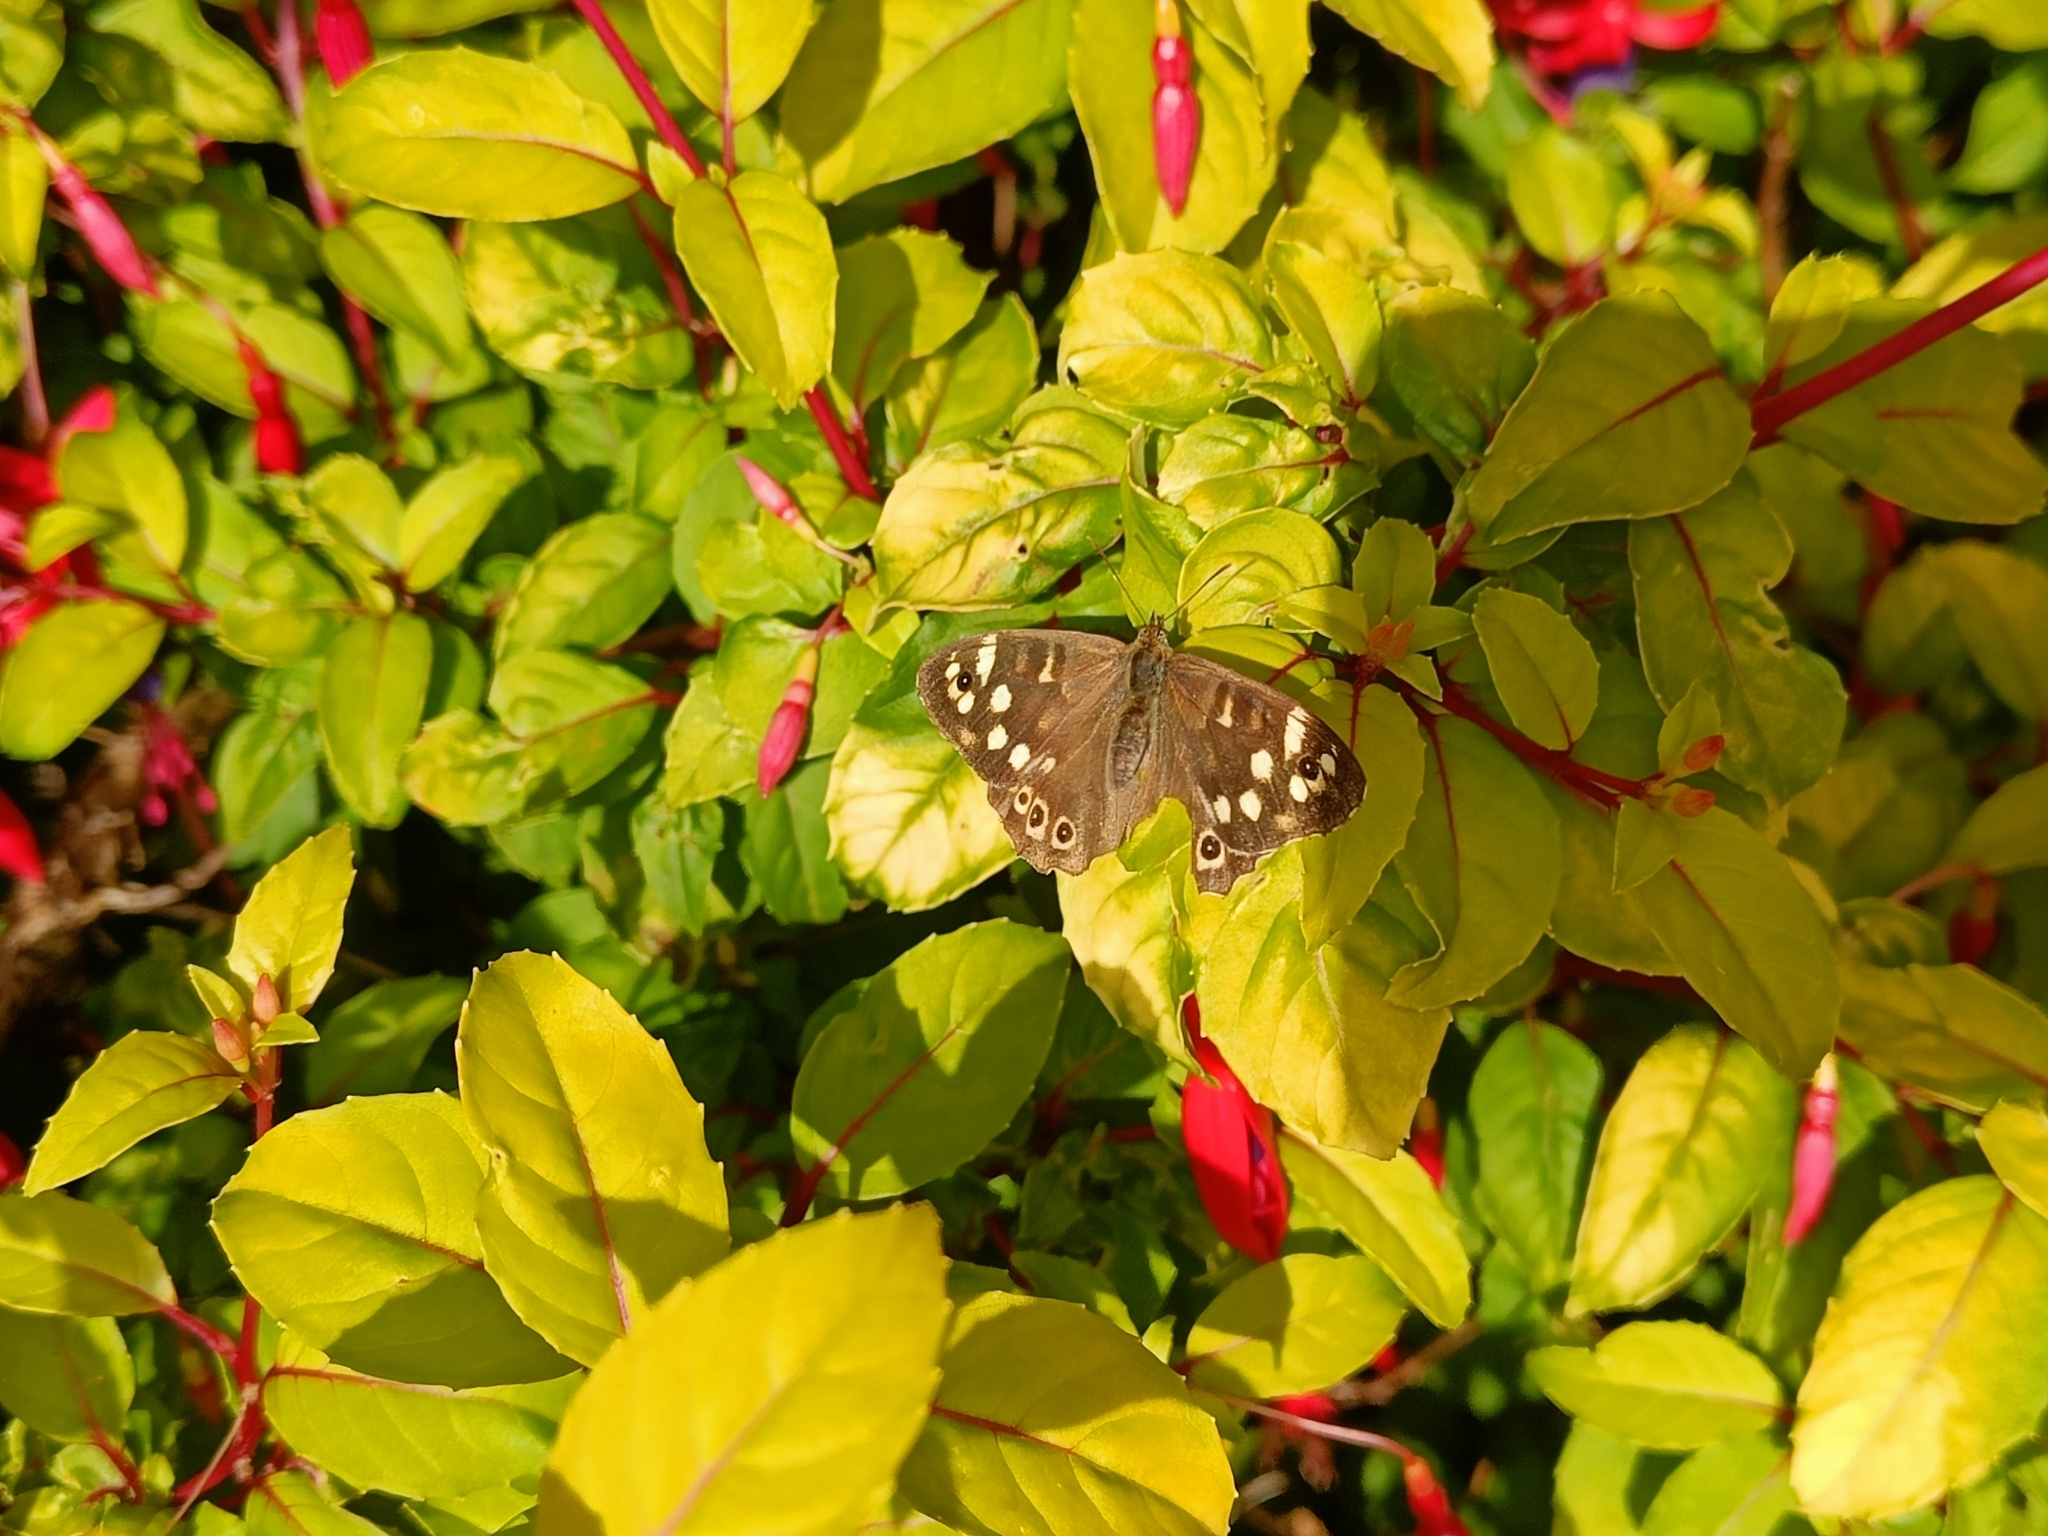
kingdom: Animalia
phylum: Arthropoda
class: Insecta
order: Lepidoptera
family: Nymphalidae
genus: Pararge
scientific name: Pararge aegeria
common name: Speckled wood
